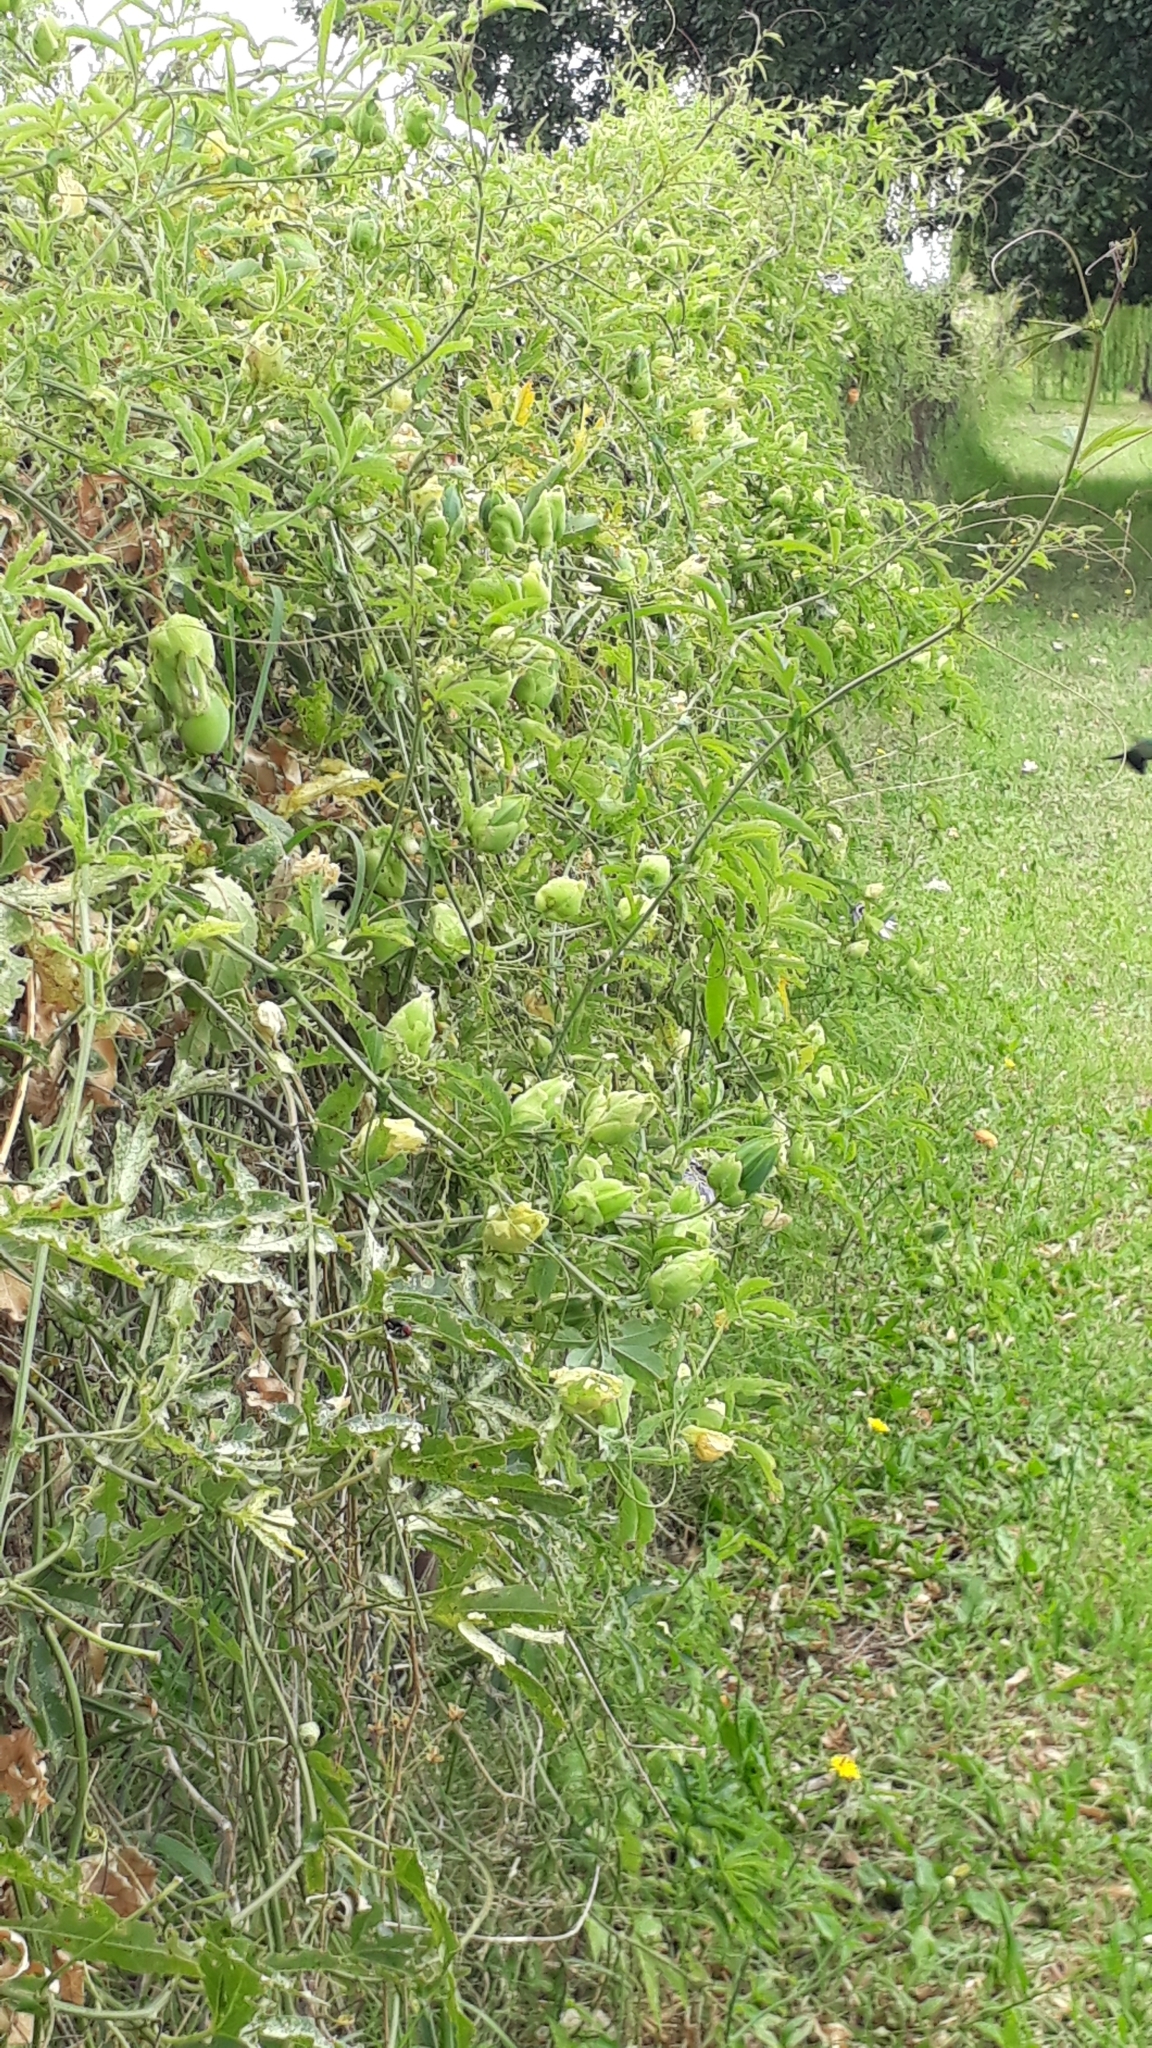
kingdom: Plantae
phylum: Tracheophyta
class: Magnoliopsida
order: Malpighiales
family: Passifloraceae
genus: Passiflora
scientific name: Passiflora caerulea
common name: Blue passionflower
